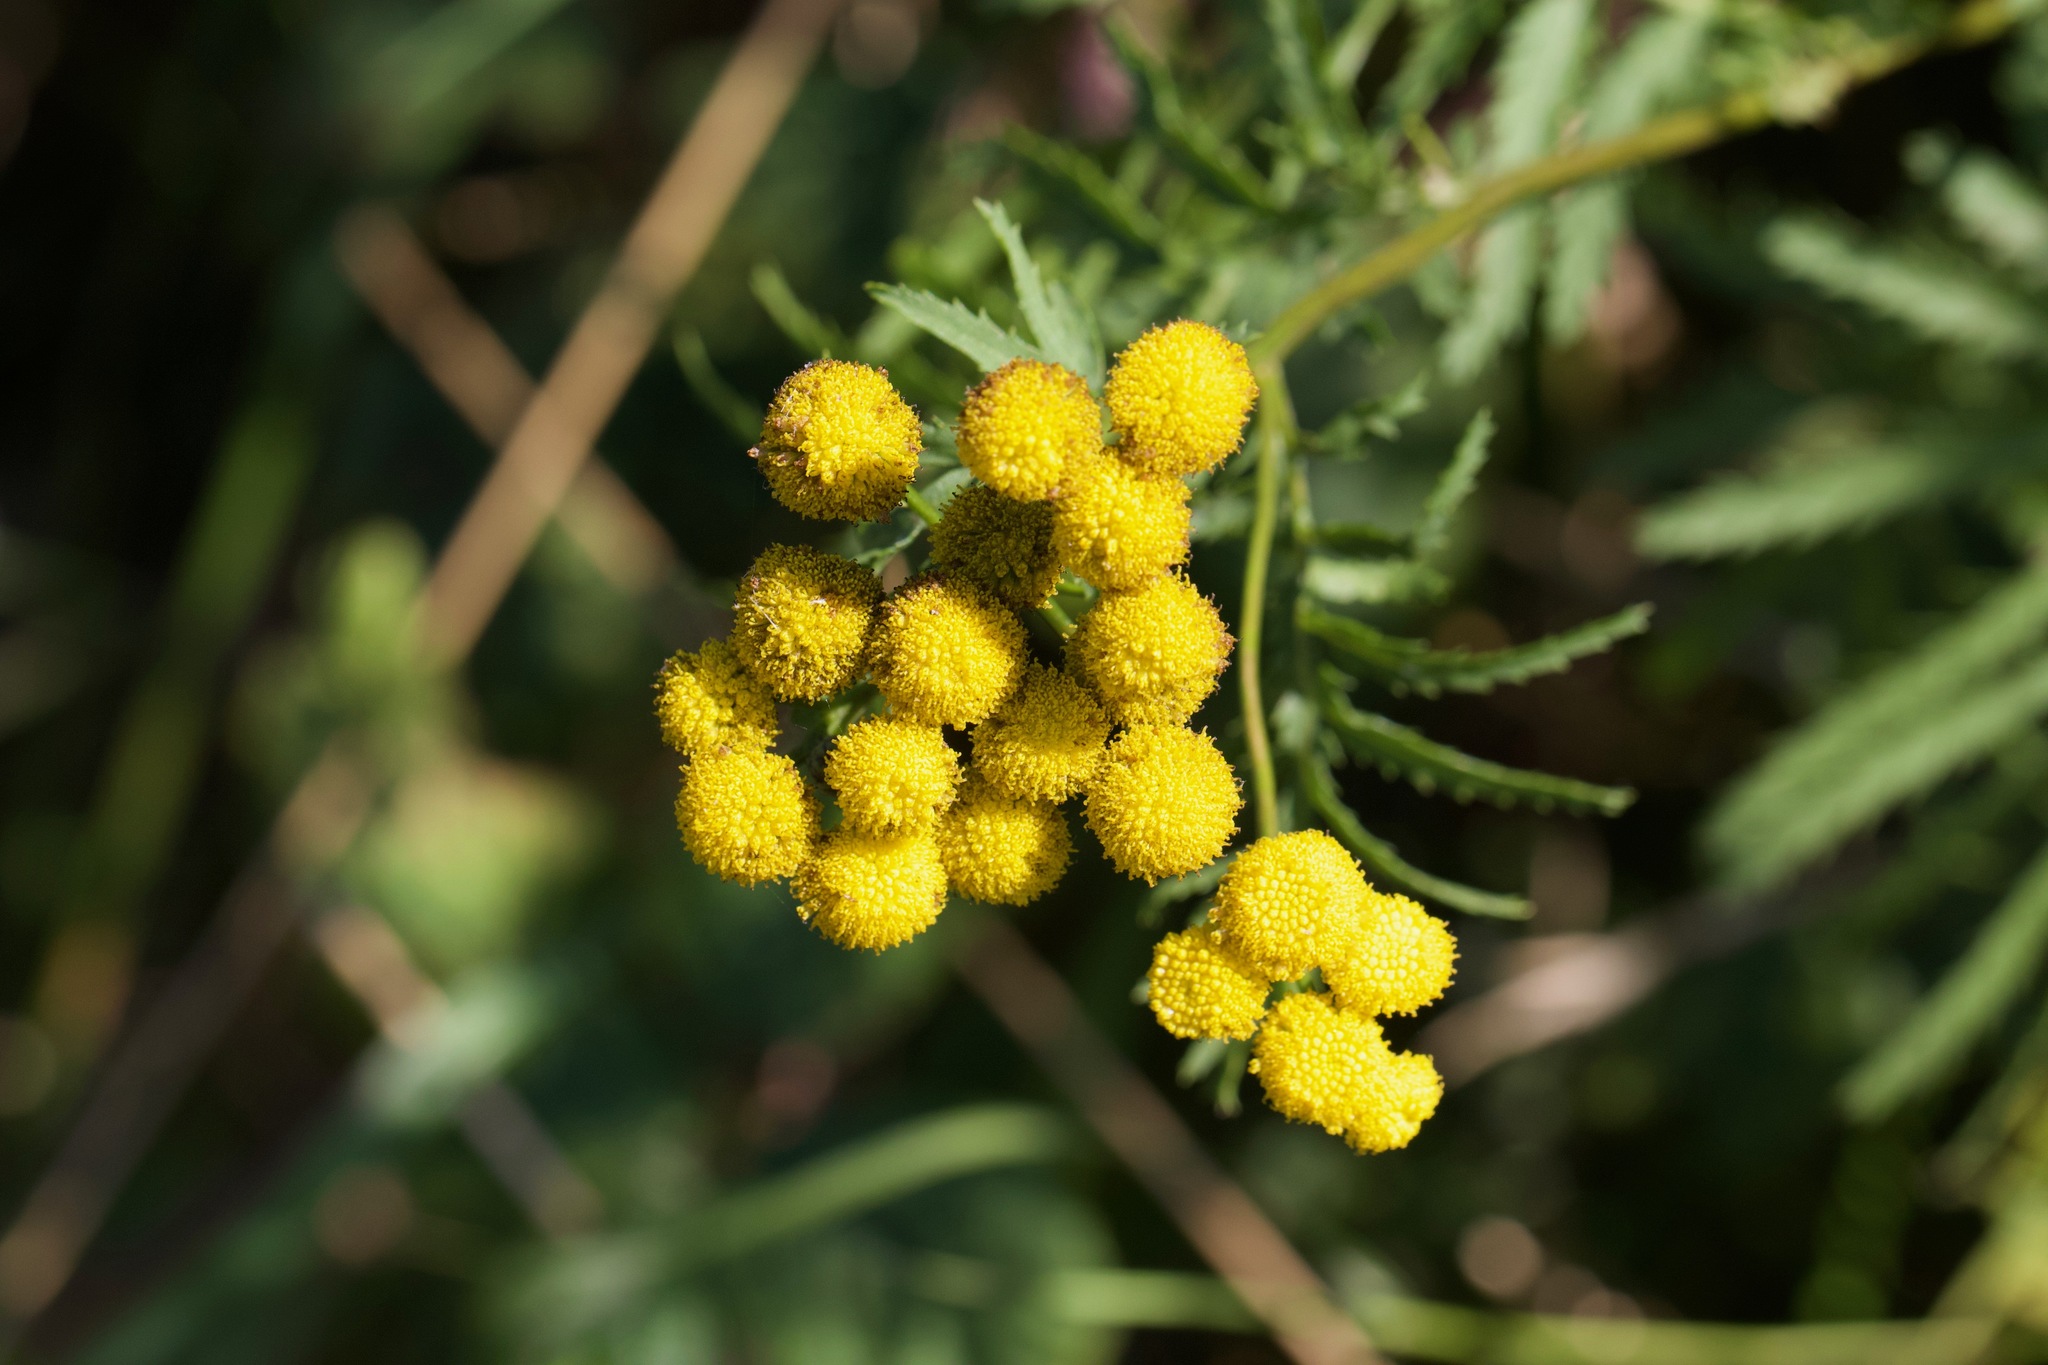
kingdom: Plantae
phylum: Tracheophyta
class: Magnoliopsida
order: Asterales
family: Asteraceae
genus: Tanacetum
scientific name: Tanacetum vulgare
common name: Common tansy
